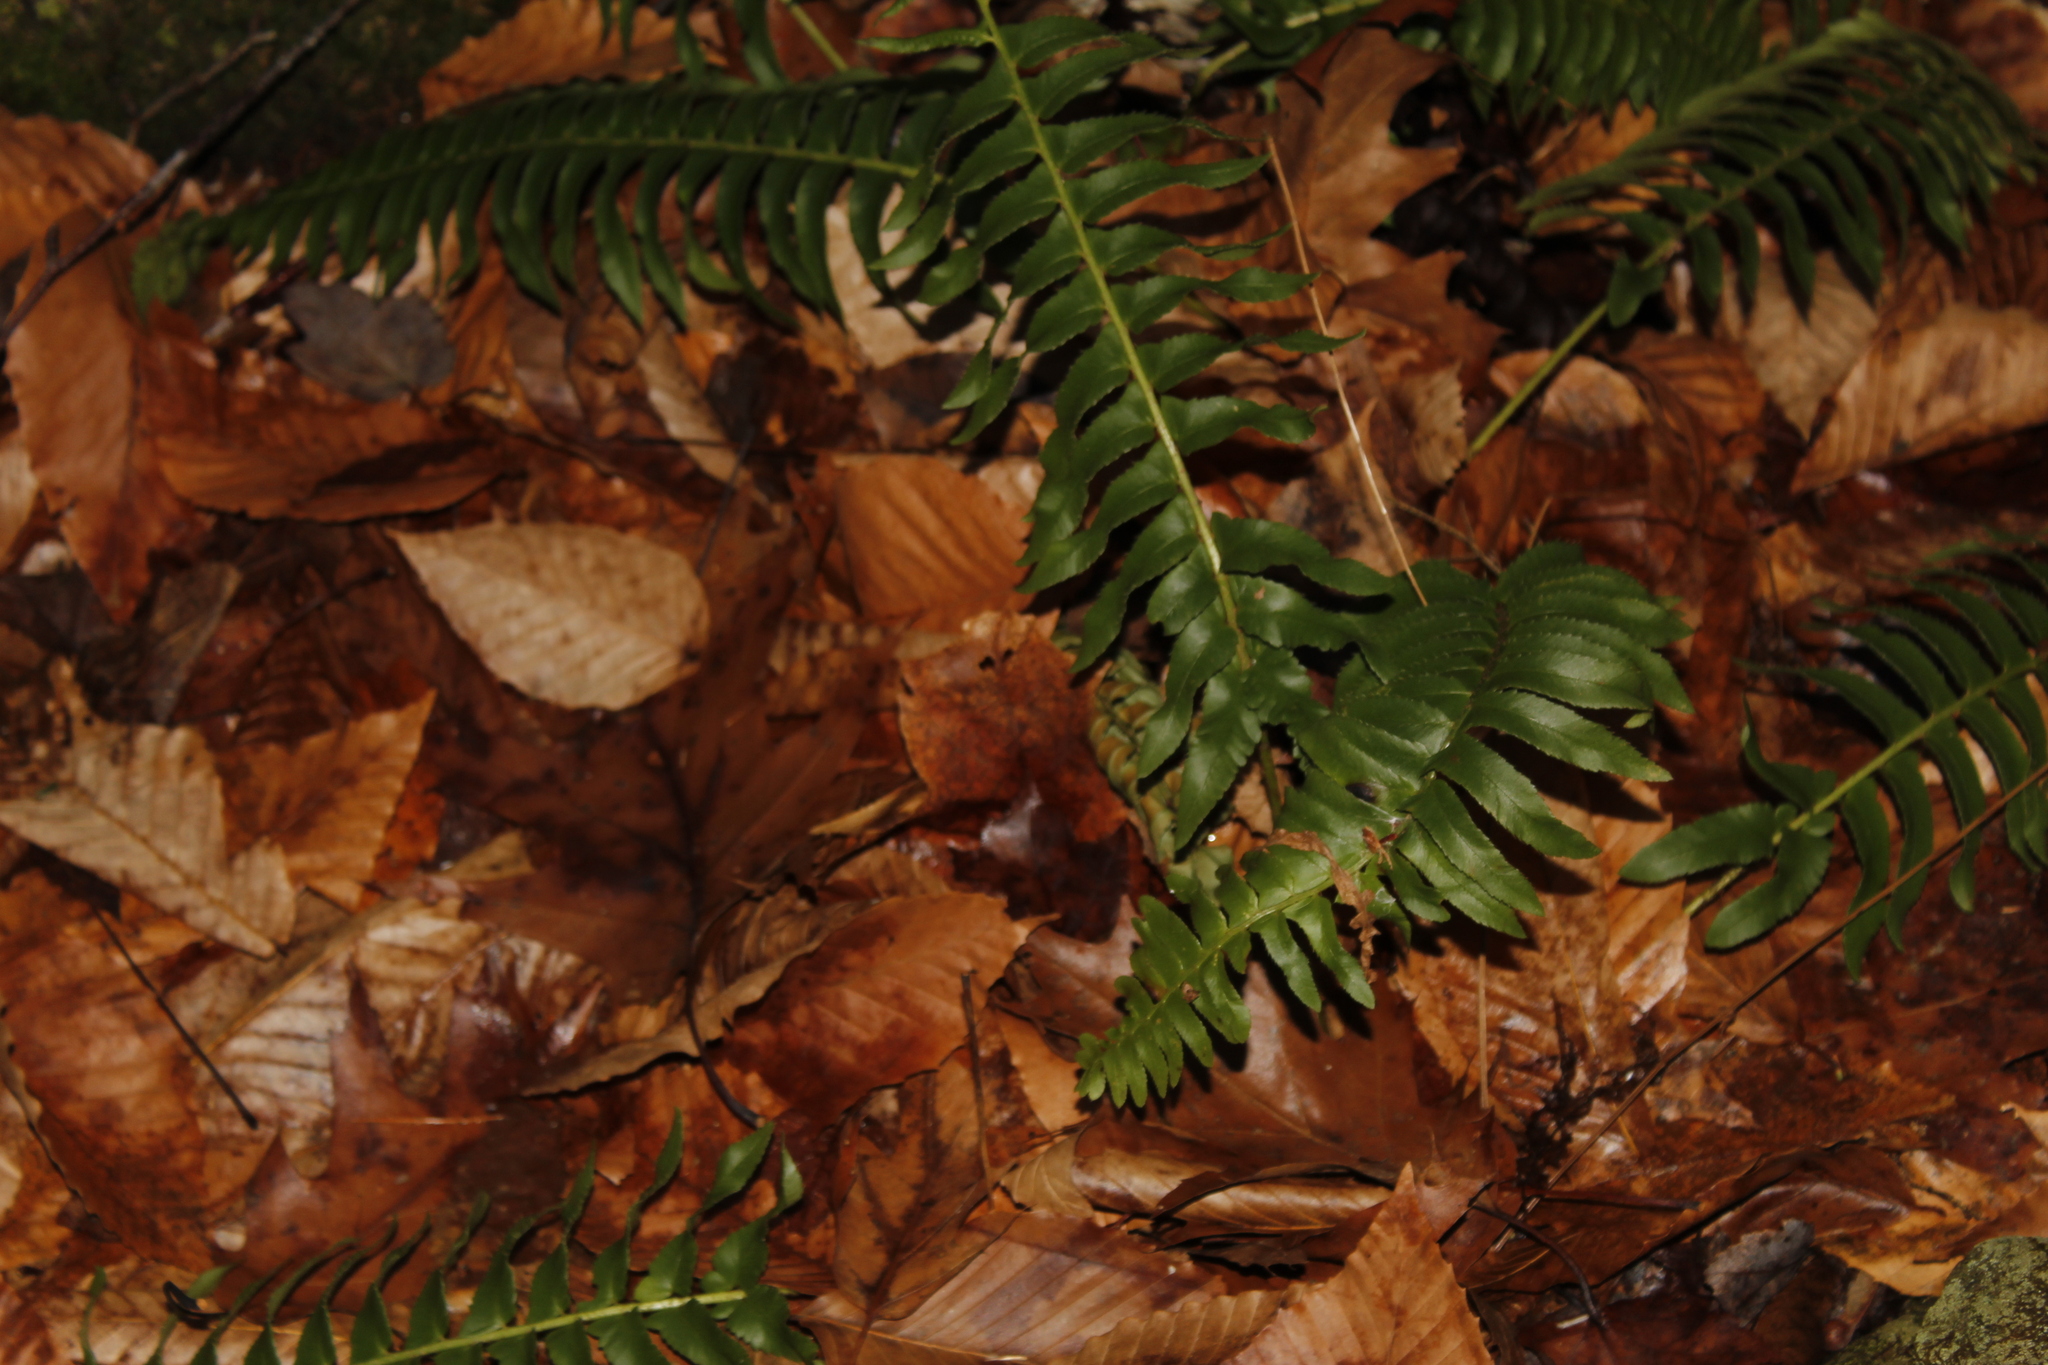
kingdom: Plantae
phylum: Tracheophyta
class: Polypodiopsida
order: Polypodiales
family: Dryopteridaceae
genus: Polystichum
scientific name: Polystichum acrostichoides
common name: Christmas fern
